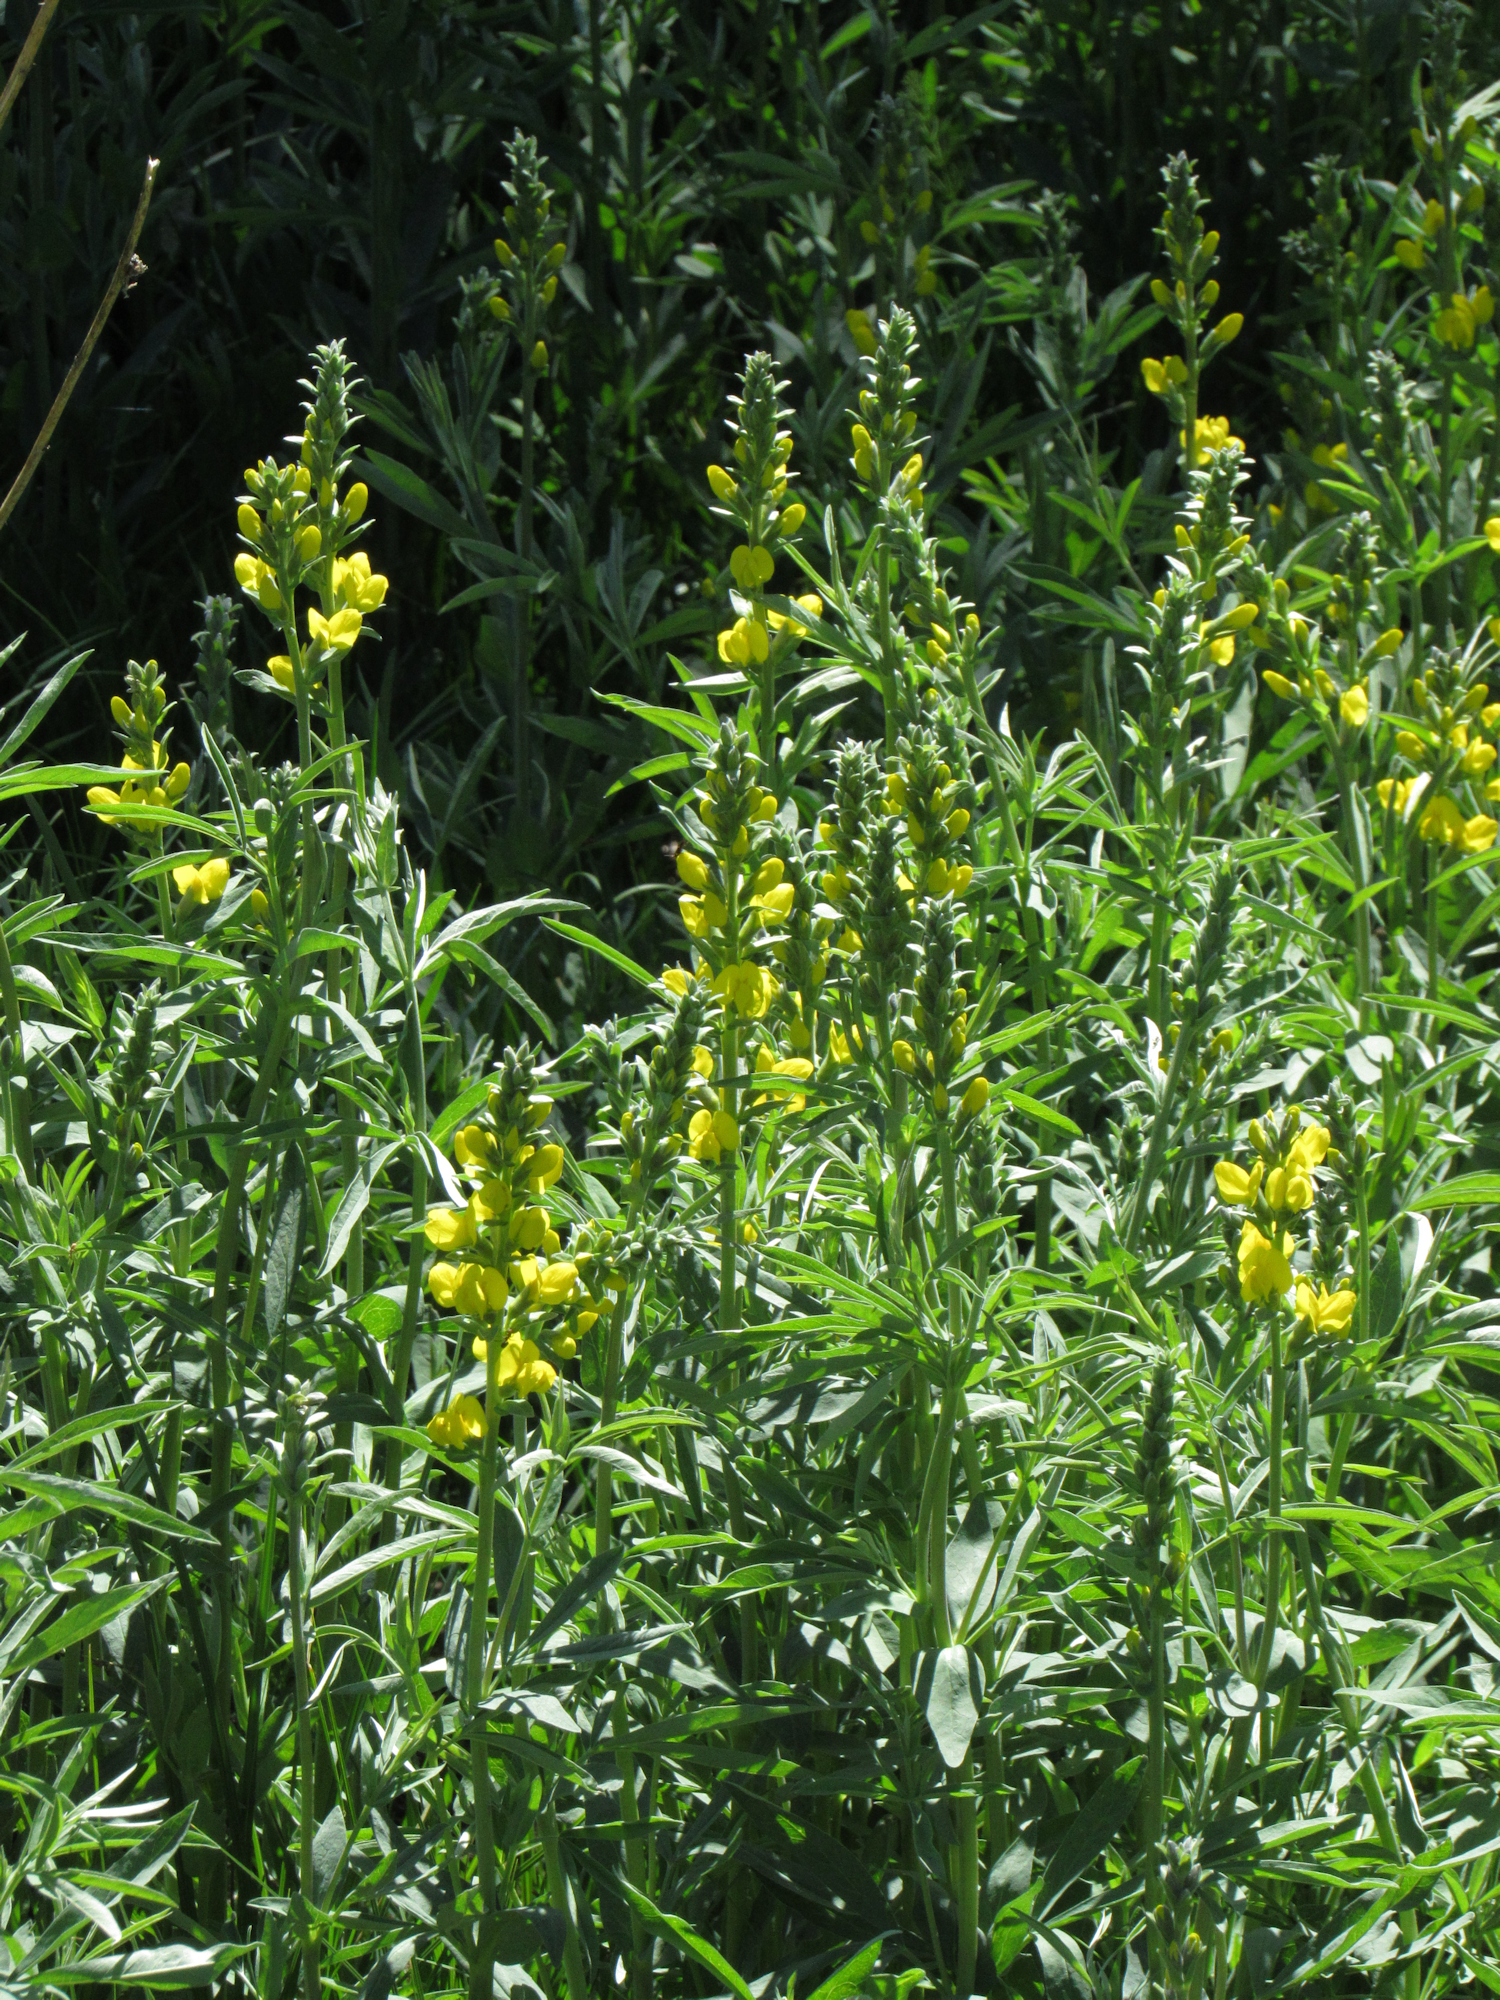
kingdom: Plantae
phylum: Tracheophyta
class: Magnoliopsida
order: Fabales
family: Fabaceae
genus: Thermopsis
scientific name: Thermopsis montana
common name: False lupin
